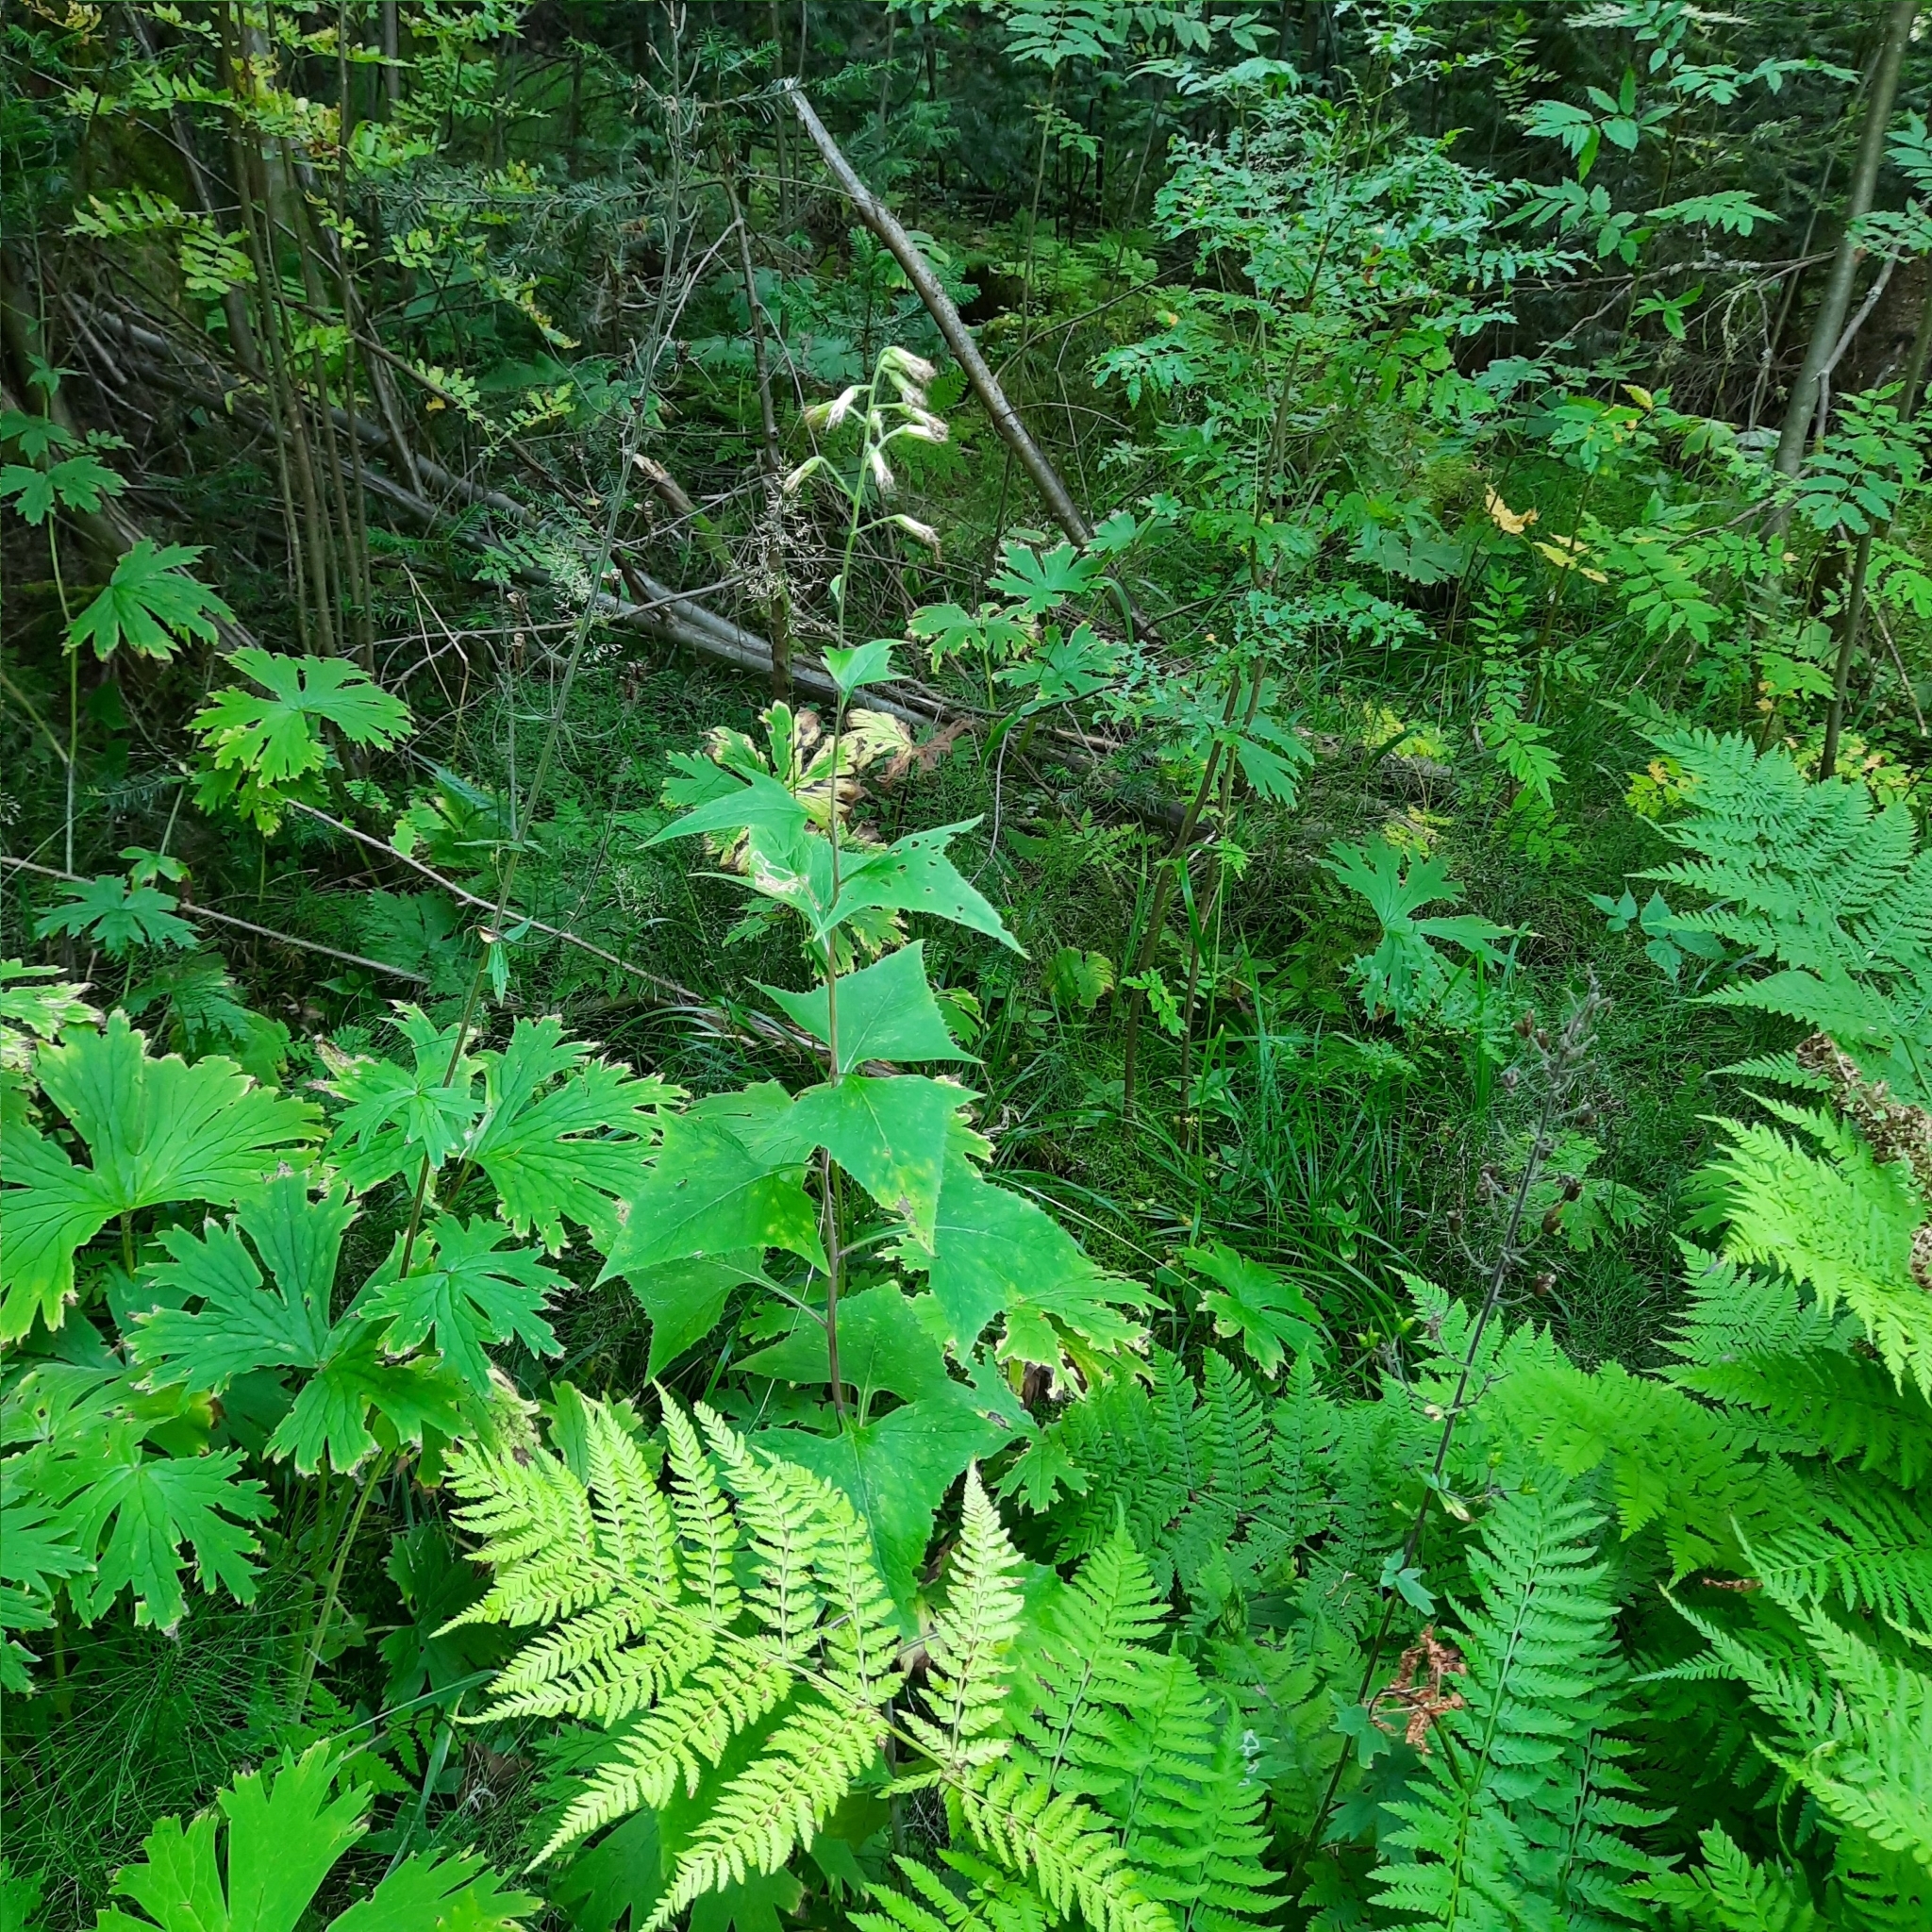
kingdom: Plantae
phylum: Tracheophyta
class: Magnoliopsida
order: Asterales
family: Asteraceae
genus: Parasenecio
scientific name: Parasenecio hastatus
